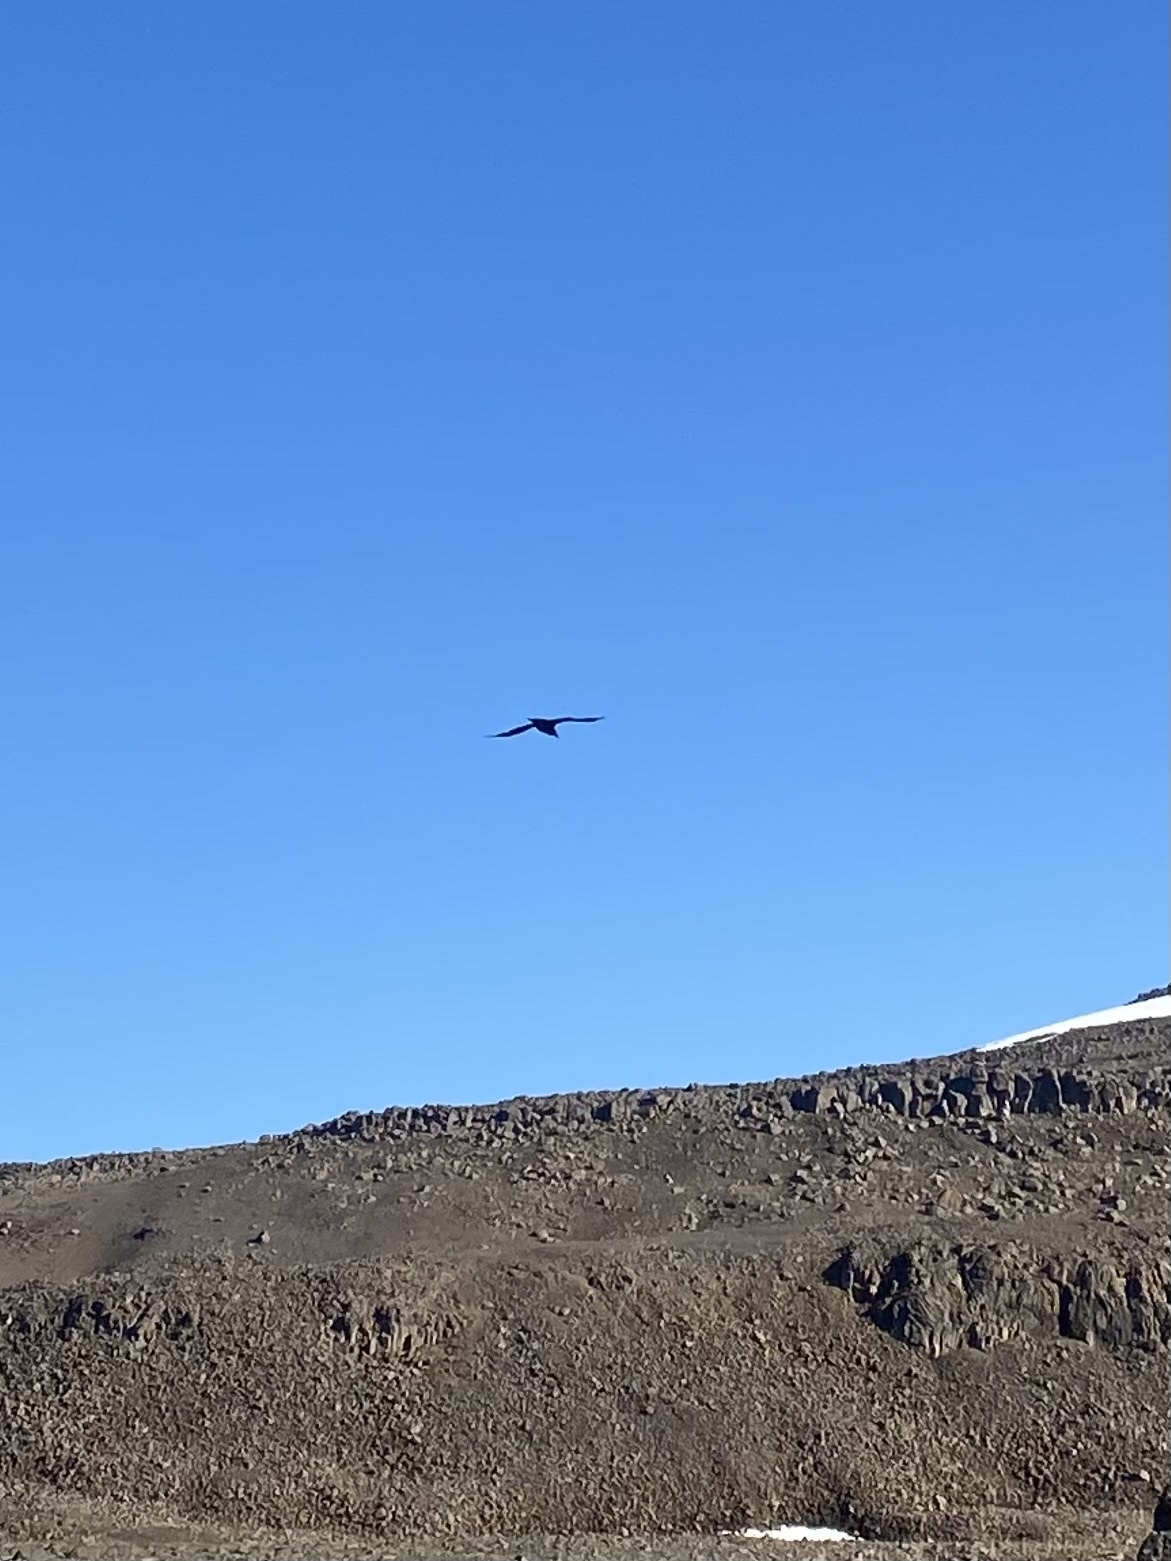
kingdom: Animalia
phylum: Chordata
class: Aves
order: Passeriformes
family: Corvidae
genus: Corvus
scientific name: Corvus corax
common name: Common raven
